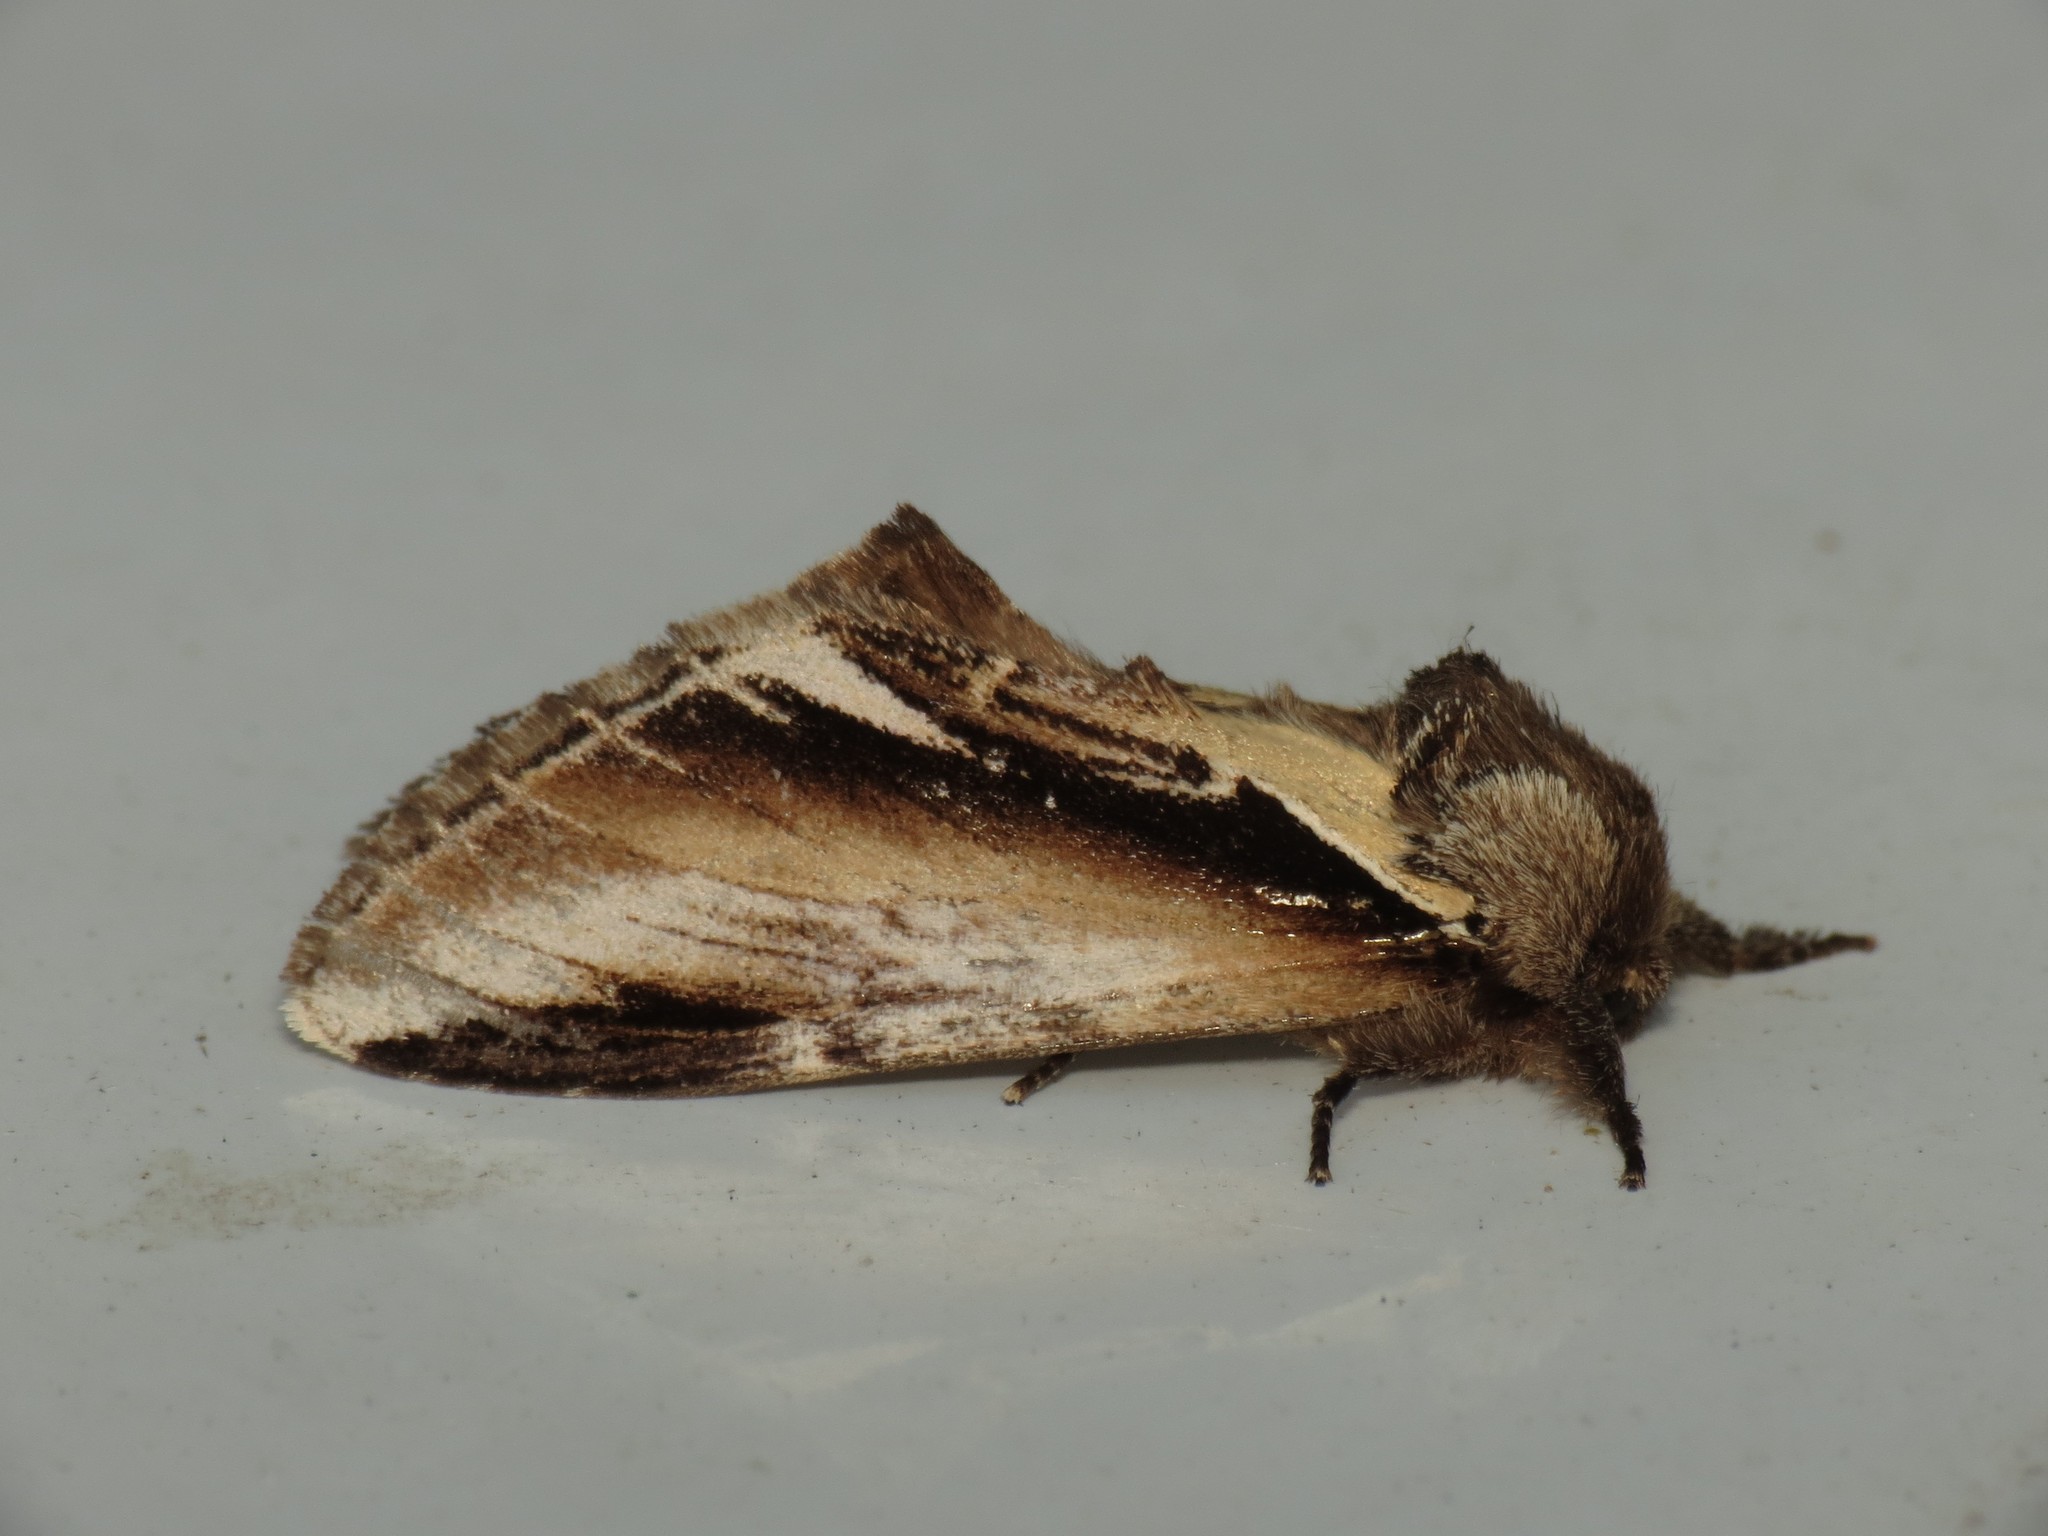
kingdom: Animalia
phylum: Arthropoda
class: Insecta
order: Lepidoptera
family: Notodontidae
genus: Pheosia
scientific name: Pheosia gnoma
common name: Lesser swallow prominent
